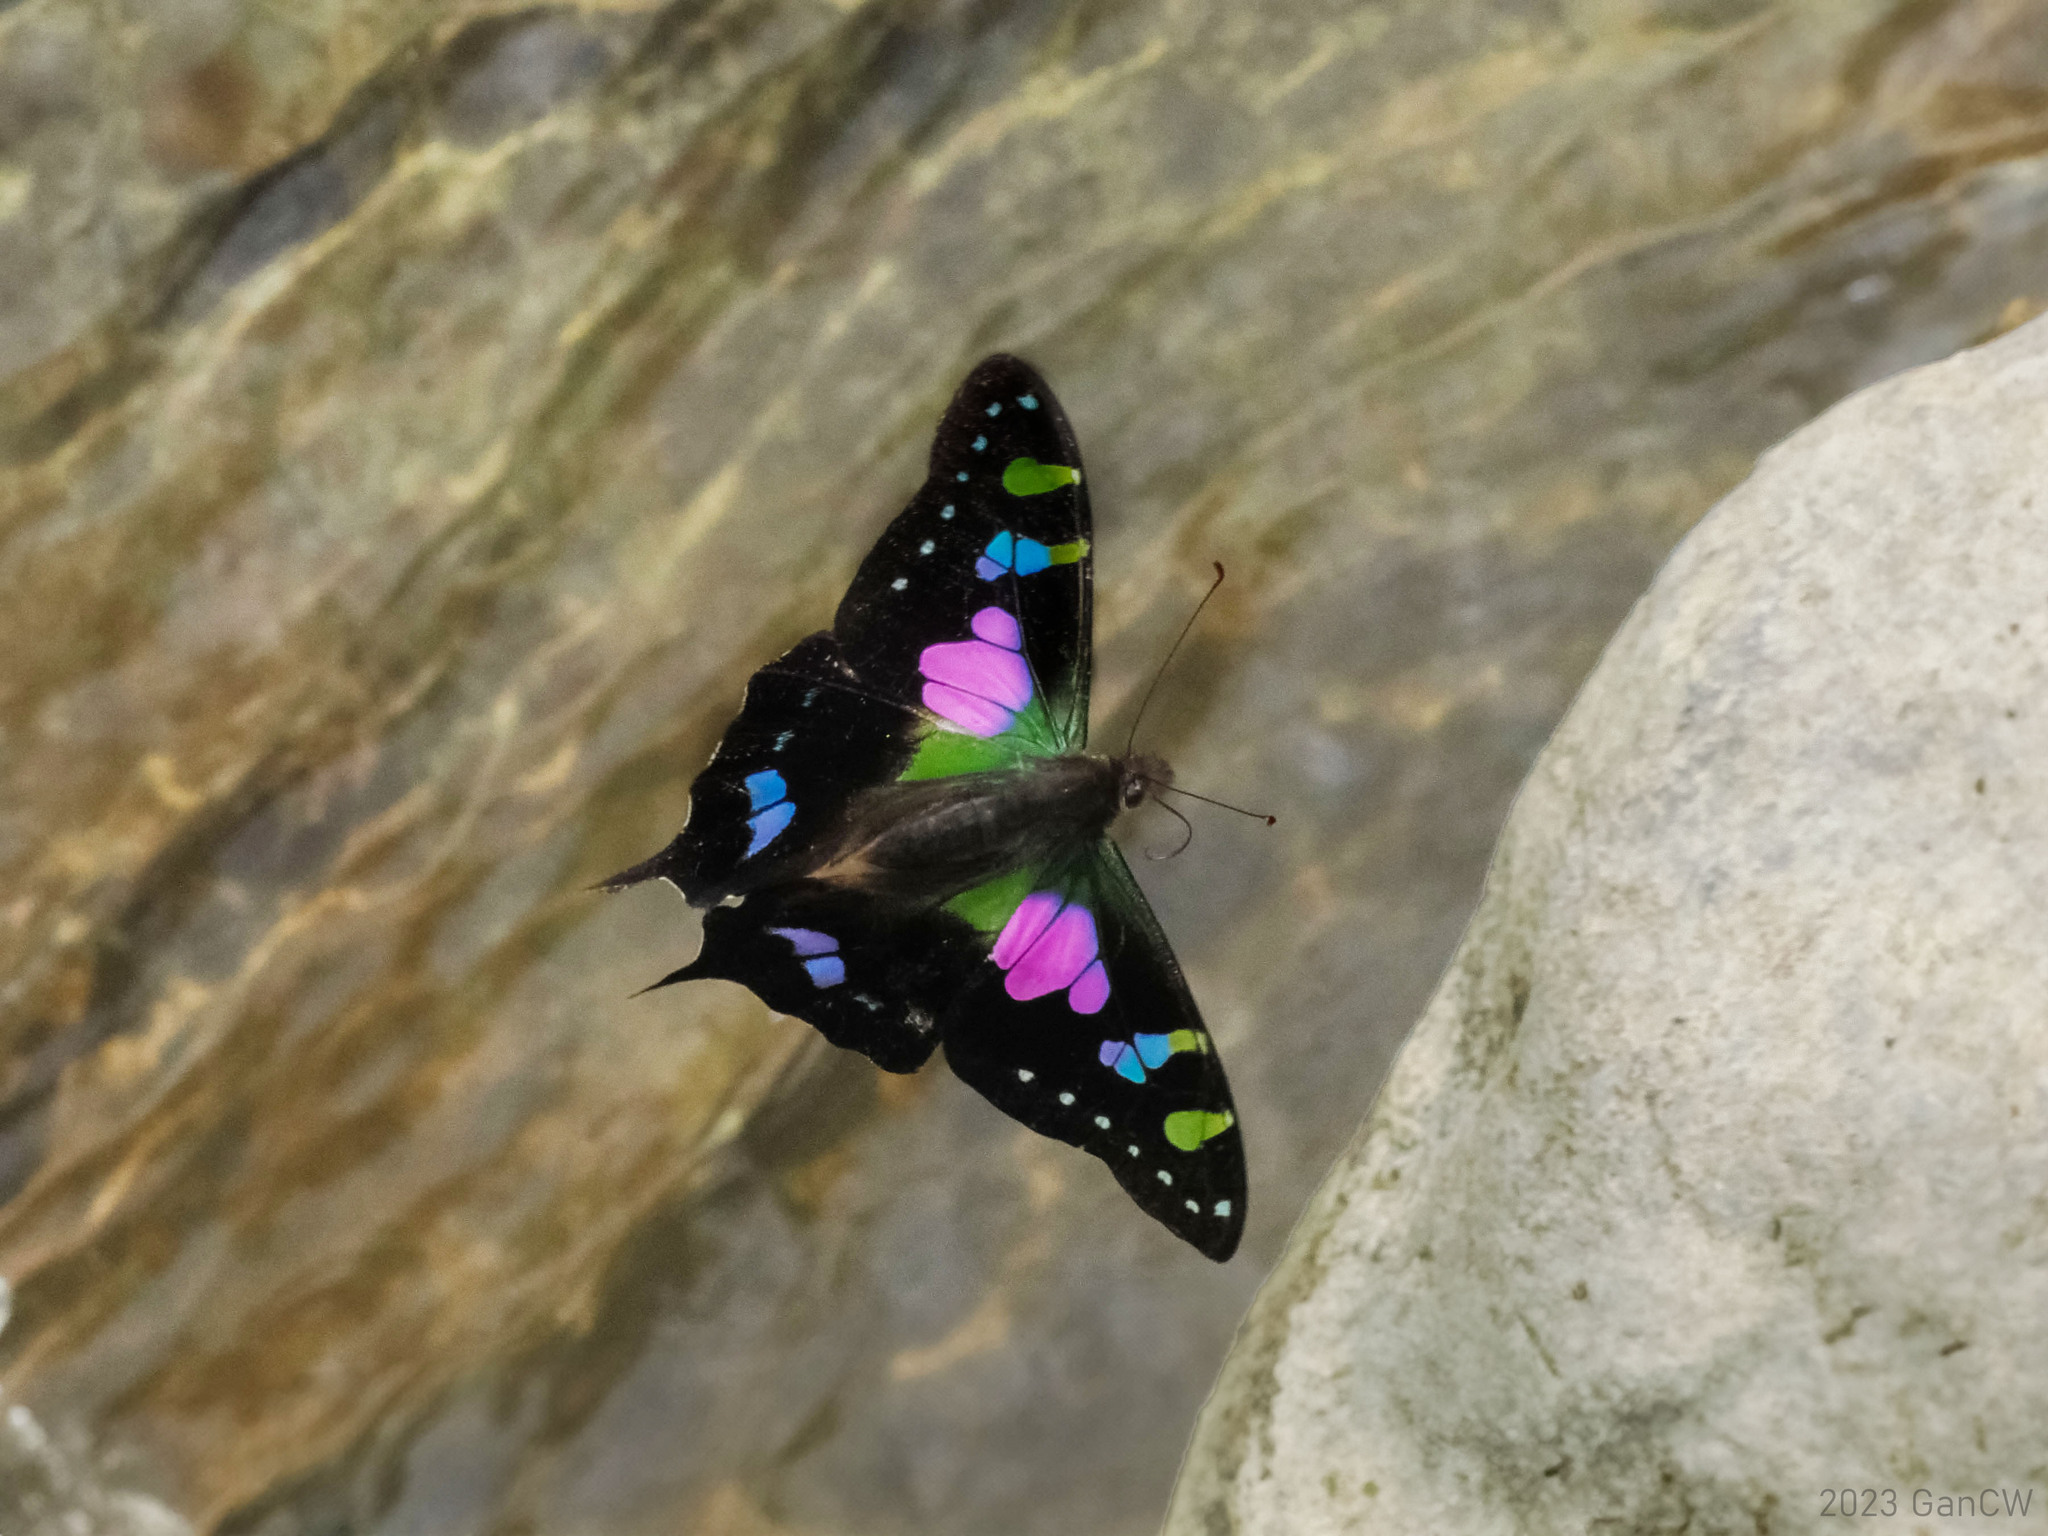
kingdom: Animalia
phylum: Arthropoda
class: Insecta
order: Lepidoptera
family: Papilionidae
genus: Graphium
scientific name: Graphium weiskei
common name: Purple spotted swallowtail
